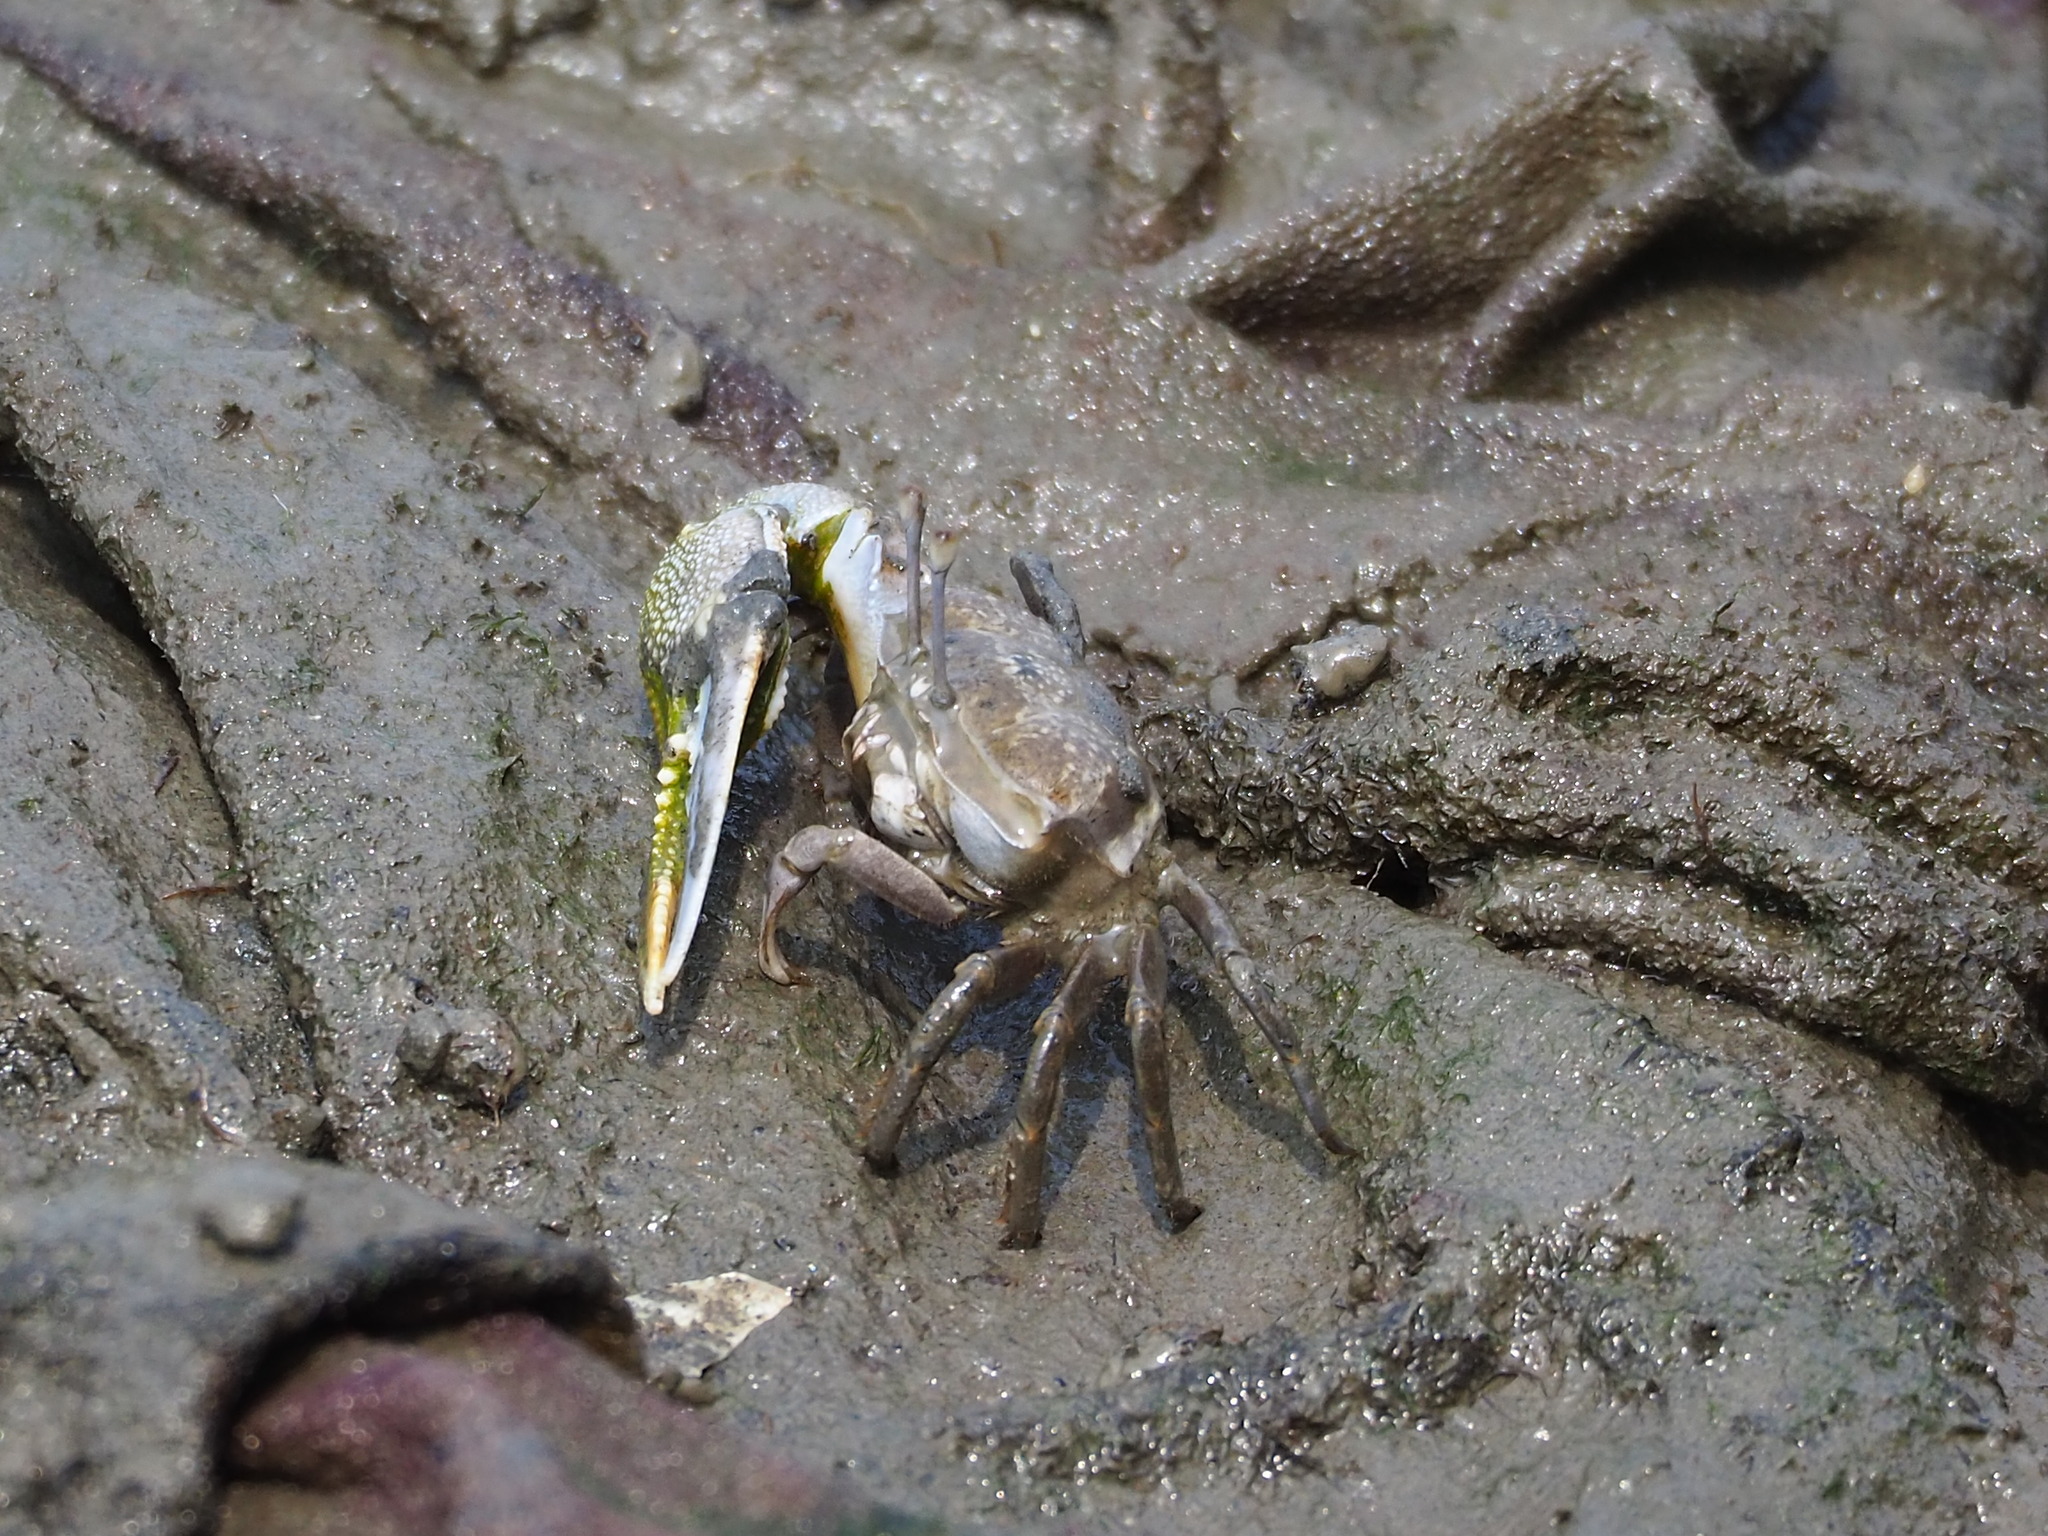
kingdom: Animalia
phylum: Arthropoda
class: Malacostraca
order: Decapoda
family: Ocypodidae
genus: Gelasimus
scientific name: Gelasimus borealis
